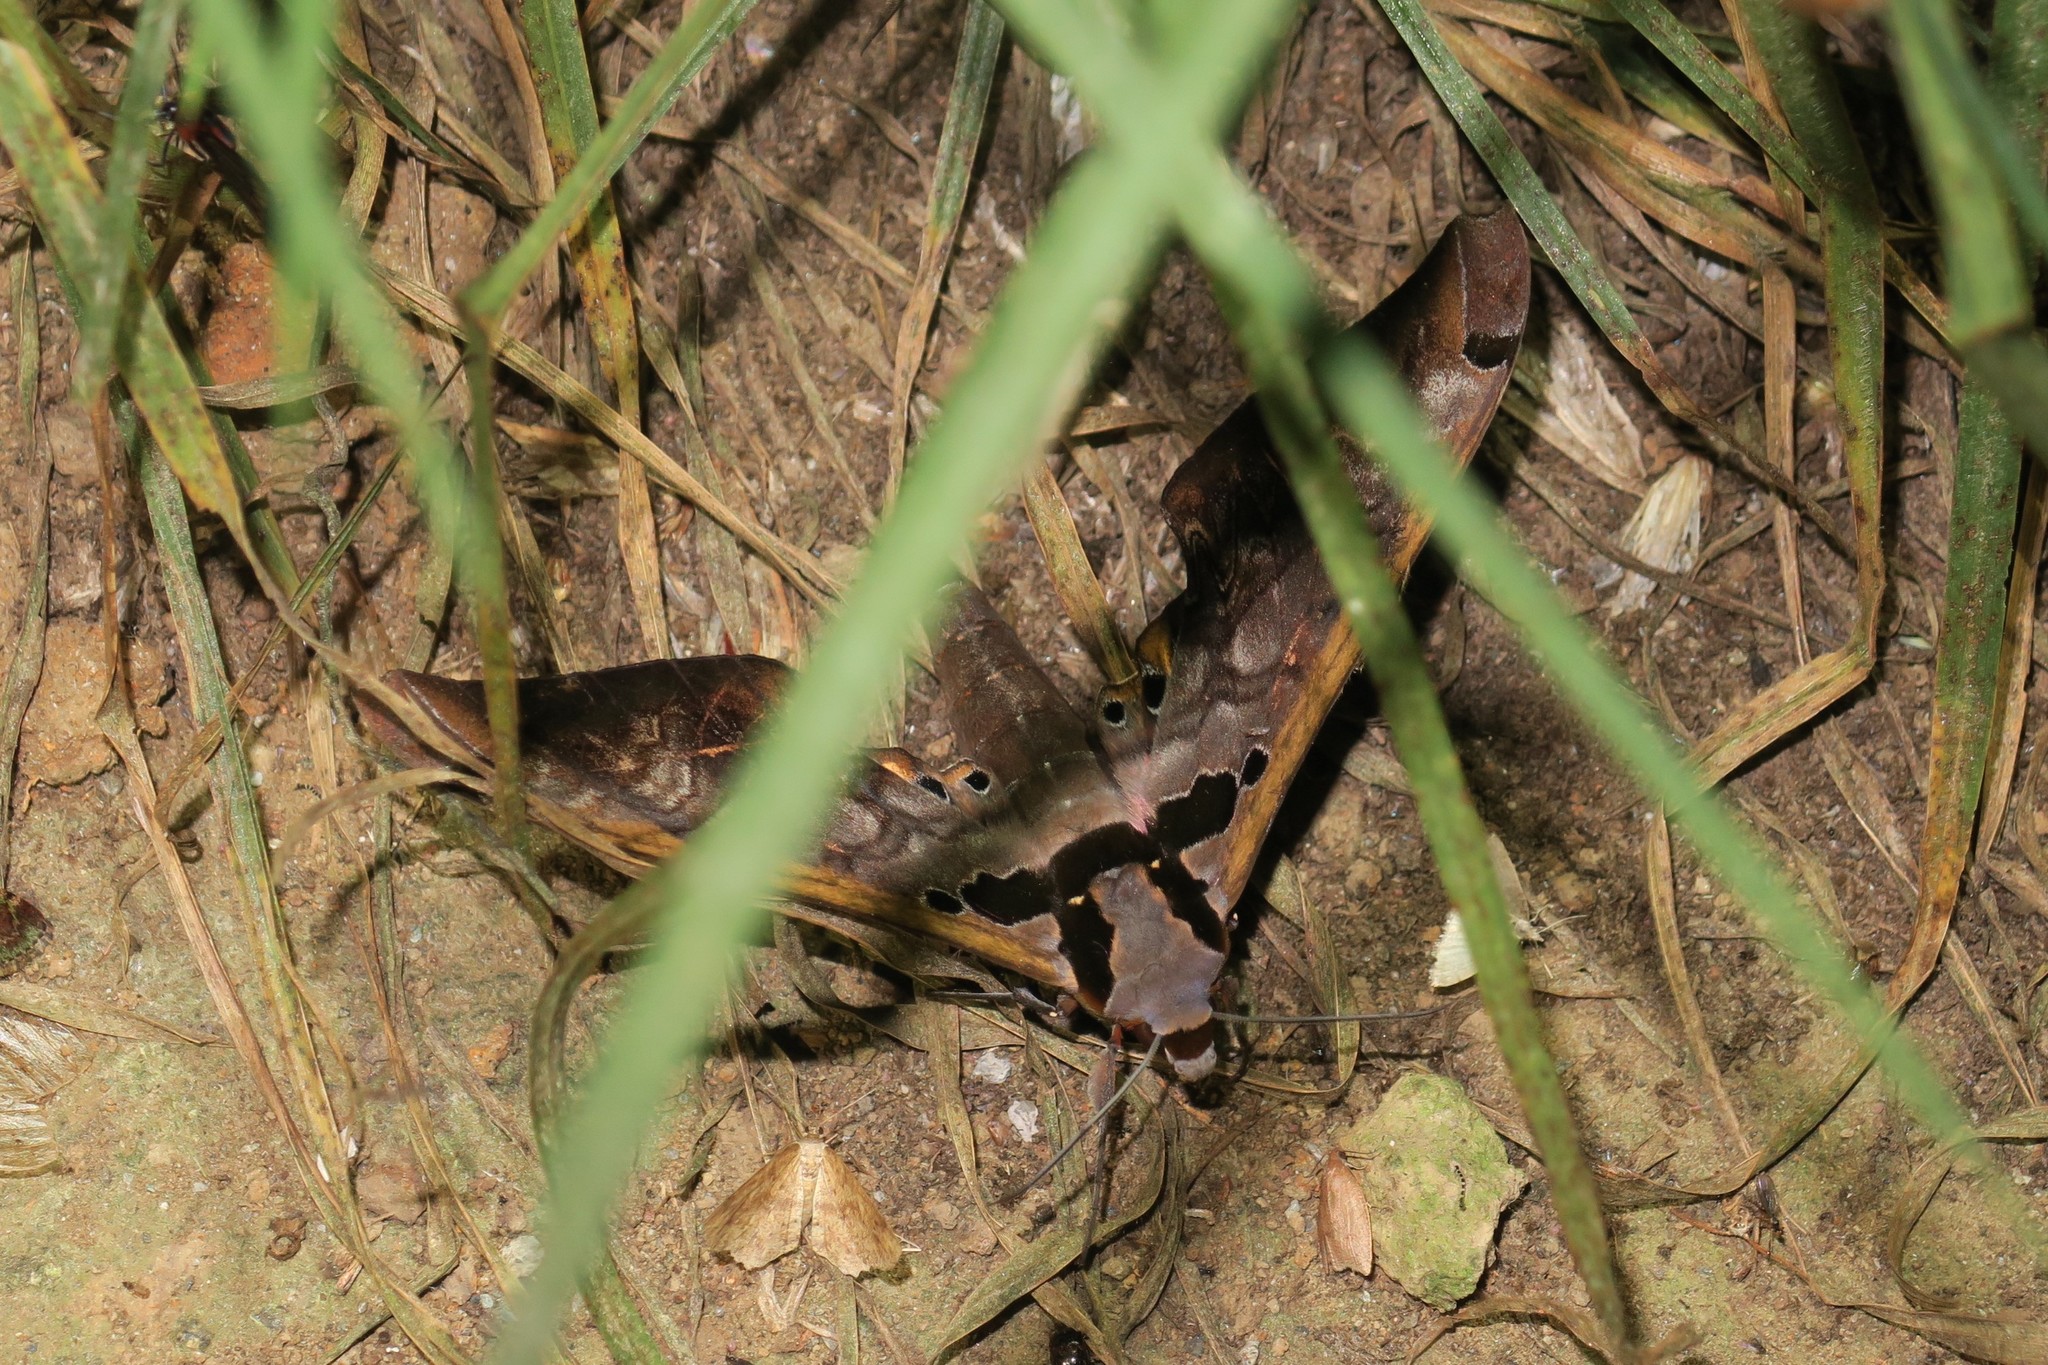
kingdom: Animalia
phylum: Arthropoda
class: Insecta
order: Lepidoptera
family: Sphingidae
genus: Adhemarius
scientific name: Adhemarius sexoculata
